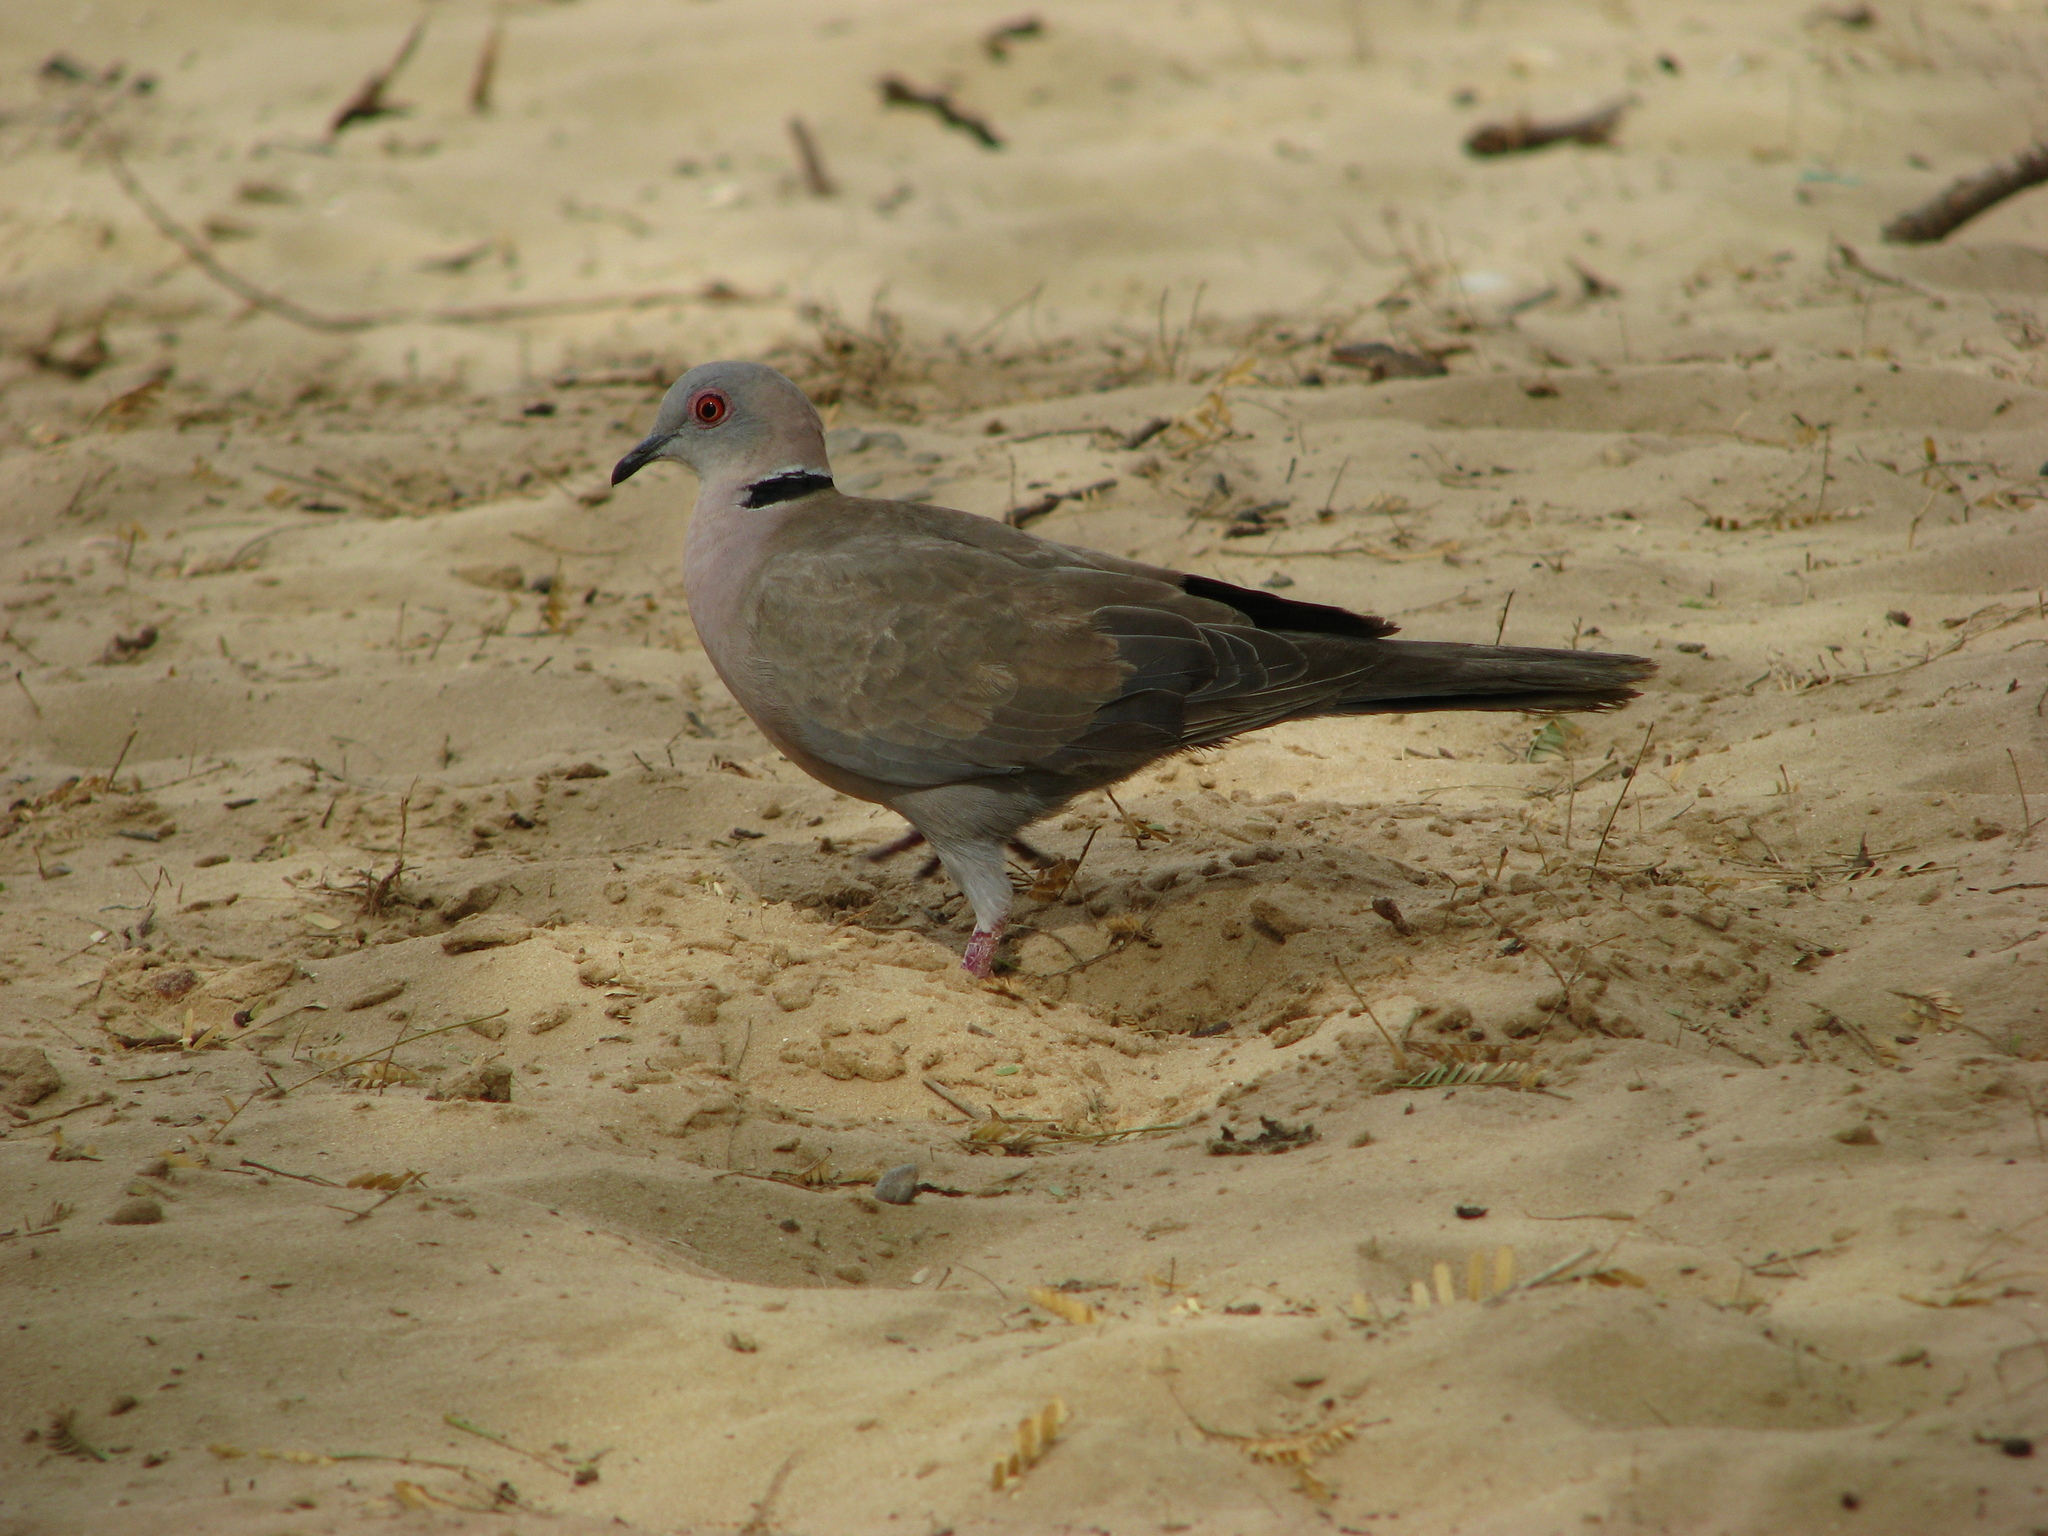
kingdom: Animalia
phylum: Chordata
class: Aves
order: Columbiformes
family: Columbidae
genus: Streptopelia
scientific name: Streptopelia decipiens
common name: Mourning collared dove
